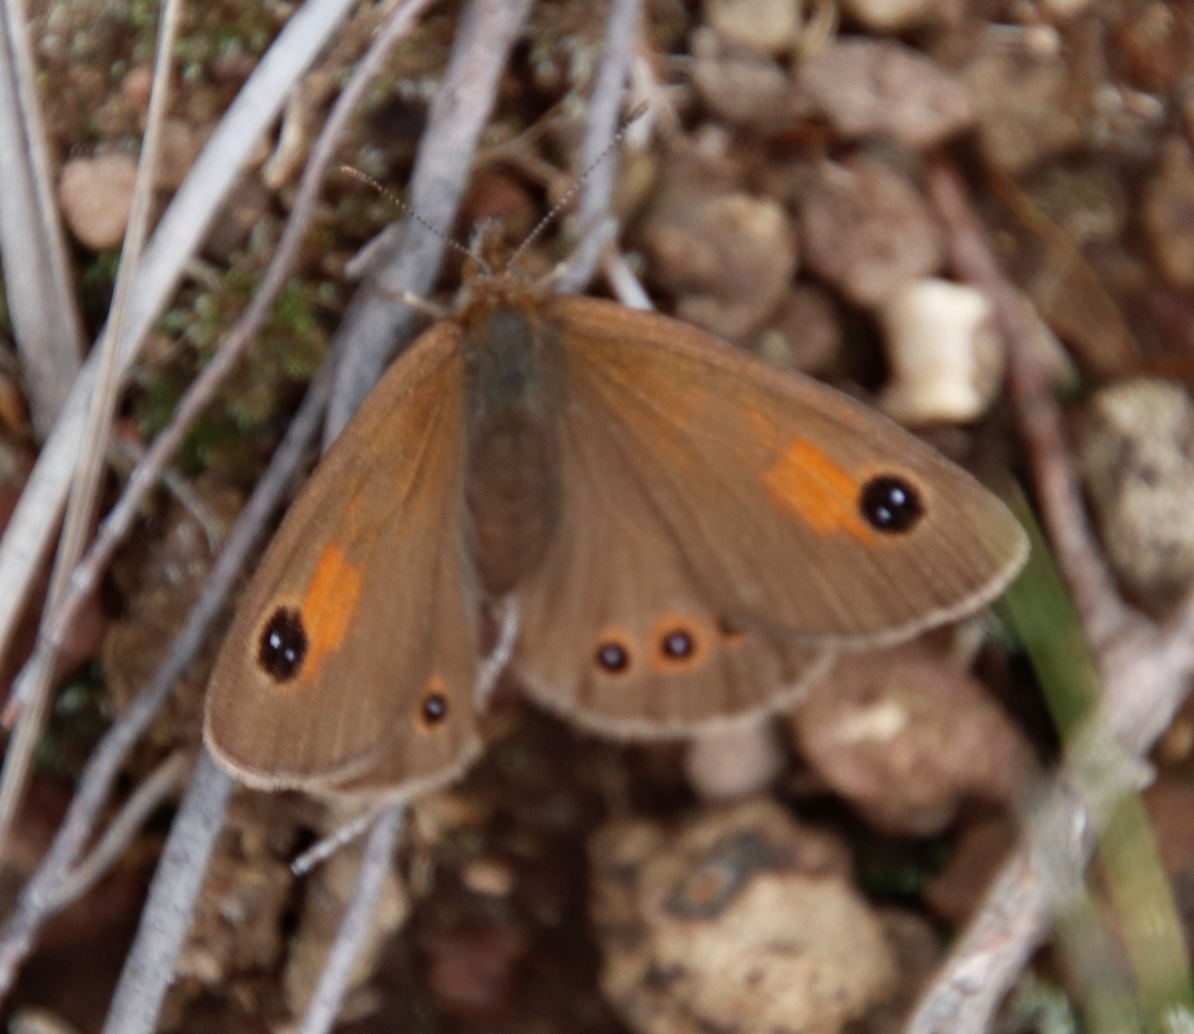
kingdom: Animalia
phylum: Arthropoda
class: Insecta
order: Lepidoptera
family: Nymphalidae
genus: Pseudonympha
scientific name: Pseudonympha magus
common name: Silver-bottom brown
